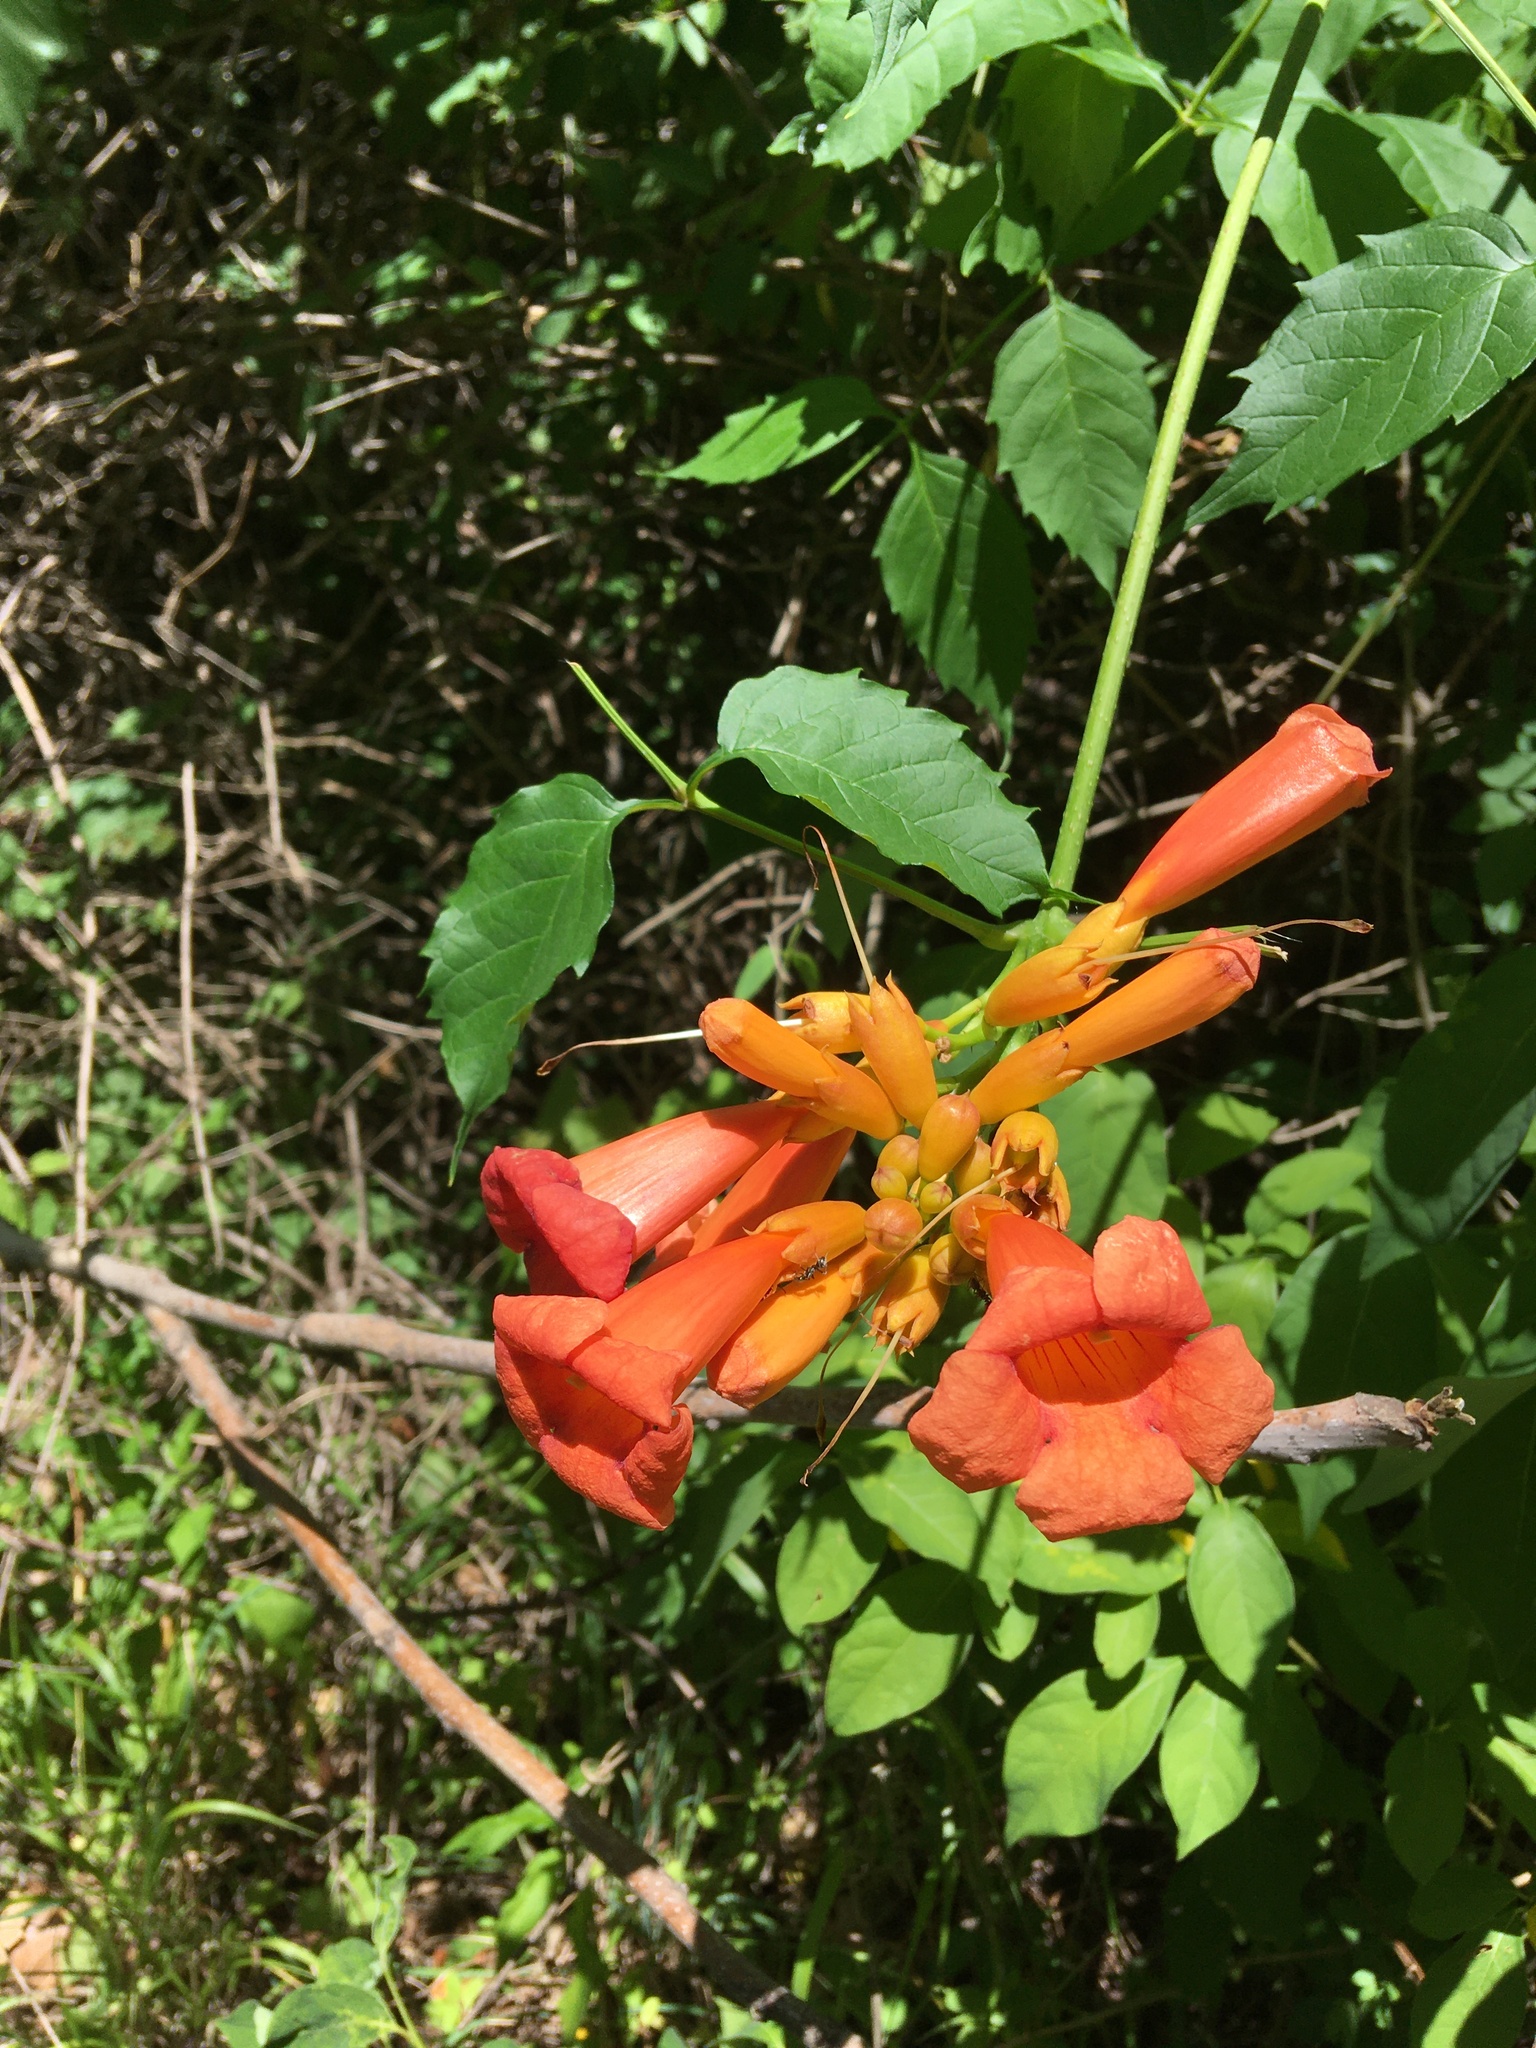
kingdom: Plantae
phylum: Tracheophyta
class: Magnoliopsida
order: Lamiales
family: Bignoniaceae
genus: Campsis
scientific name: Campsis radicans
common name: Trumpet-creeper
